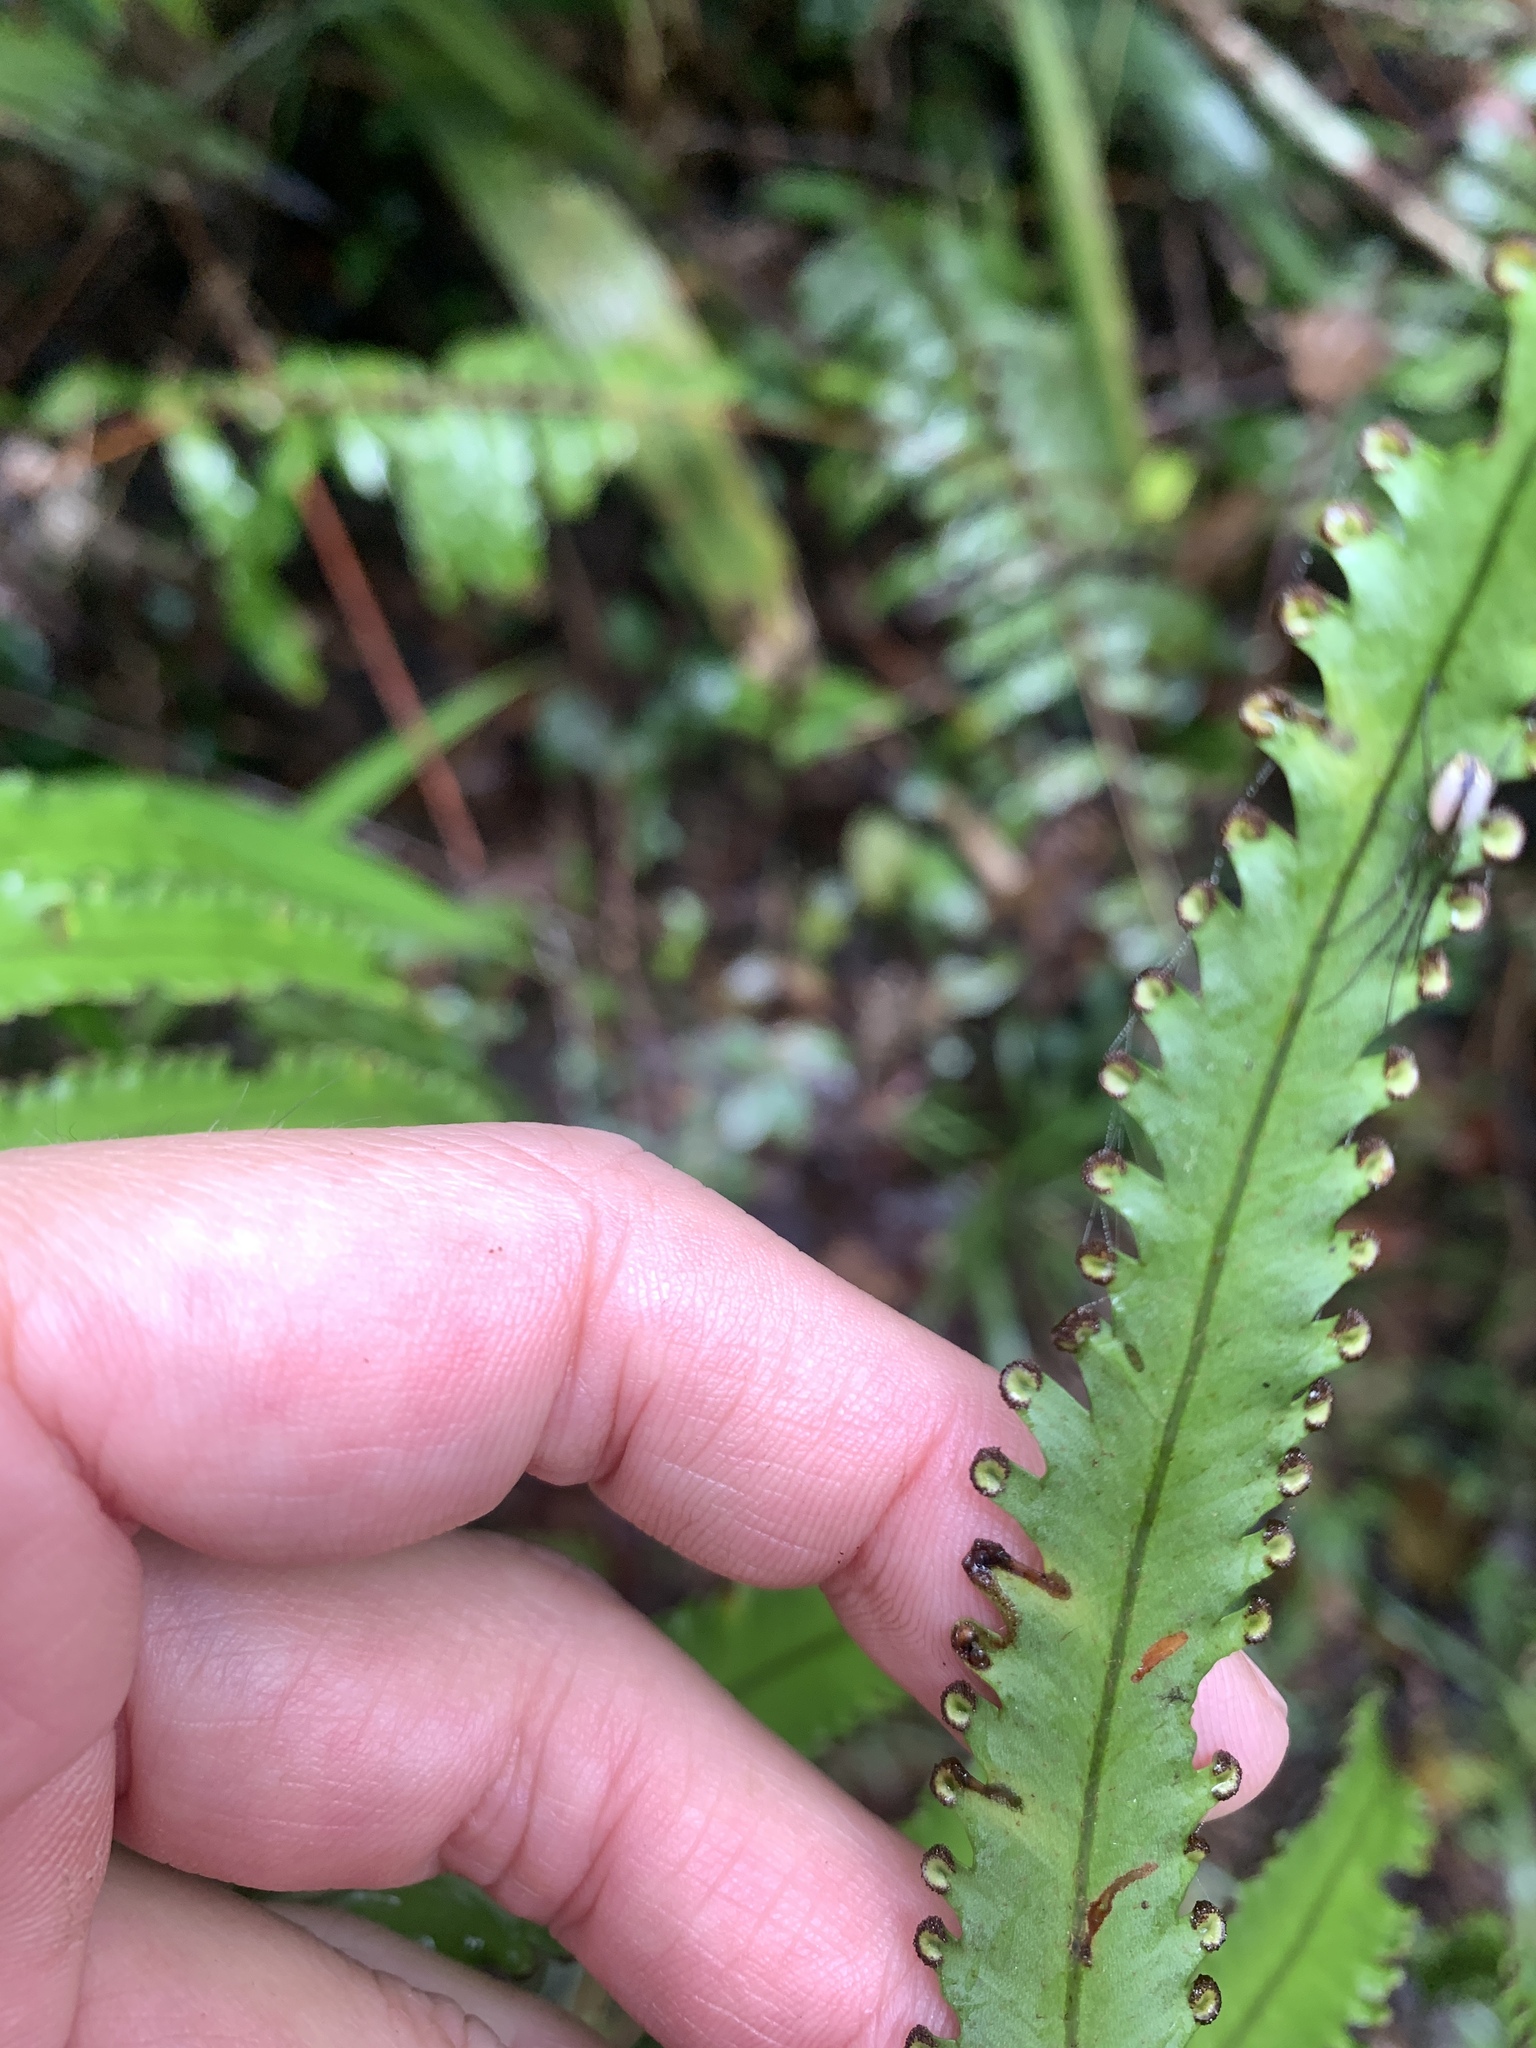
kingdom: Plantae
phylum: Tracheophyta
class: Polypodiopsida
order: Polypodiales
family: Nephrolepidaceae
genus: Nephrolepis
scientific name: Nephrolepis davallioides
